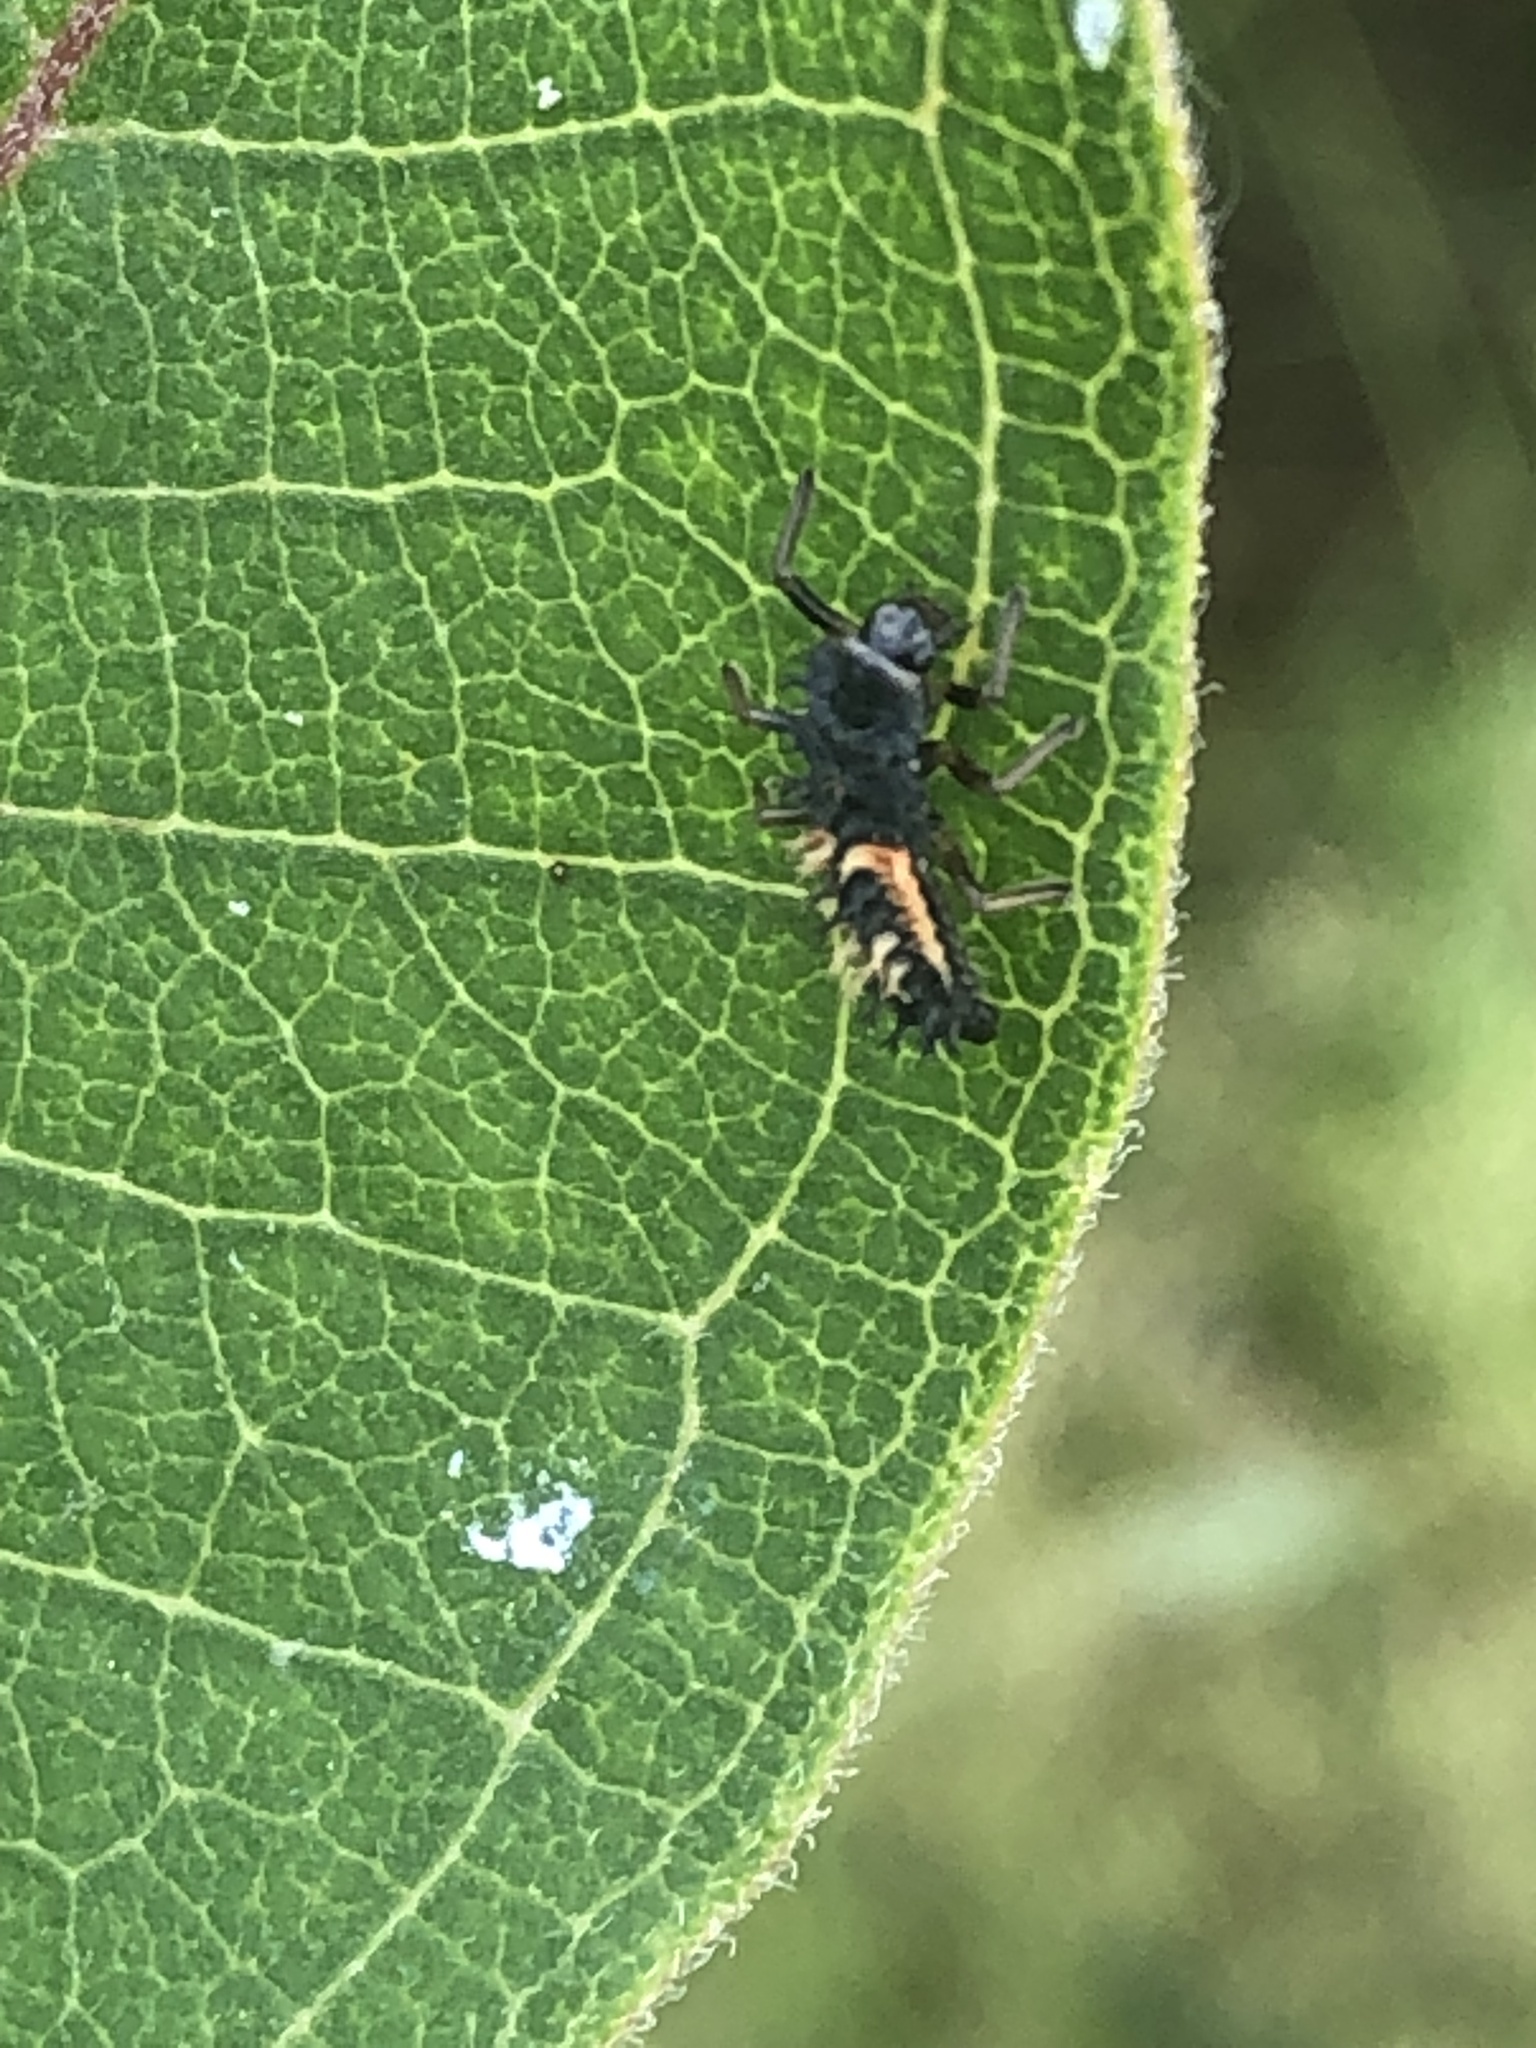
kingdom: Animalia
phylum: Arthropoda
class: Insecta
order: Coleoptera
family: Coccinellidae
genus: Harmonia
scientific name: Harmonia axyridis
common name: Harlequin ladybird
